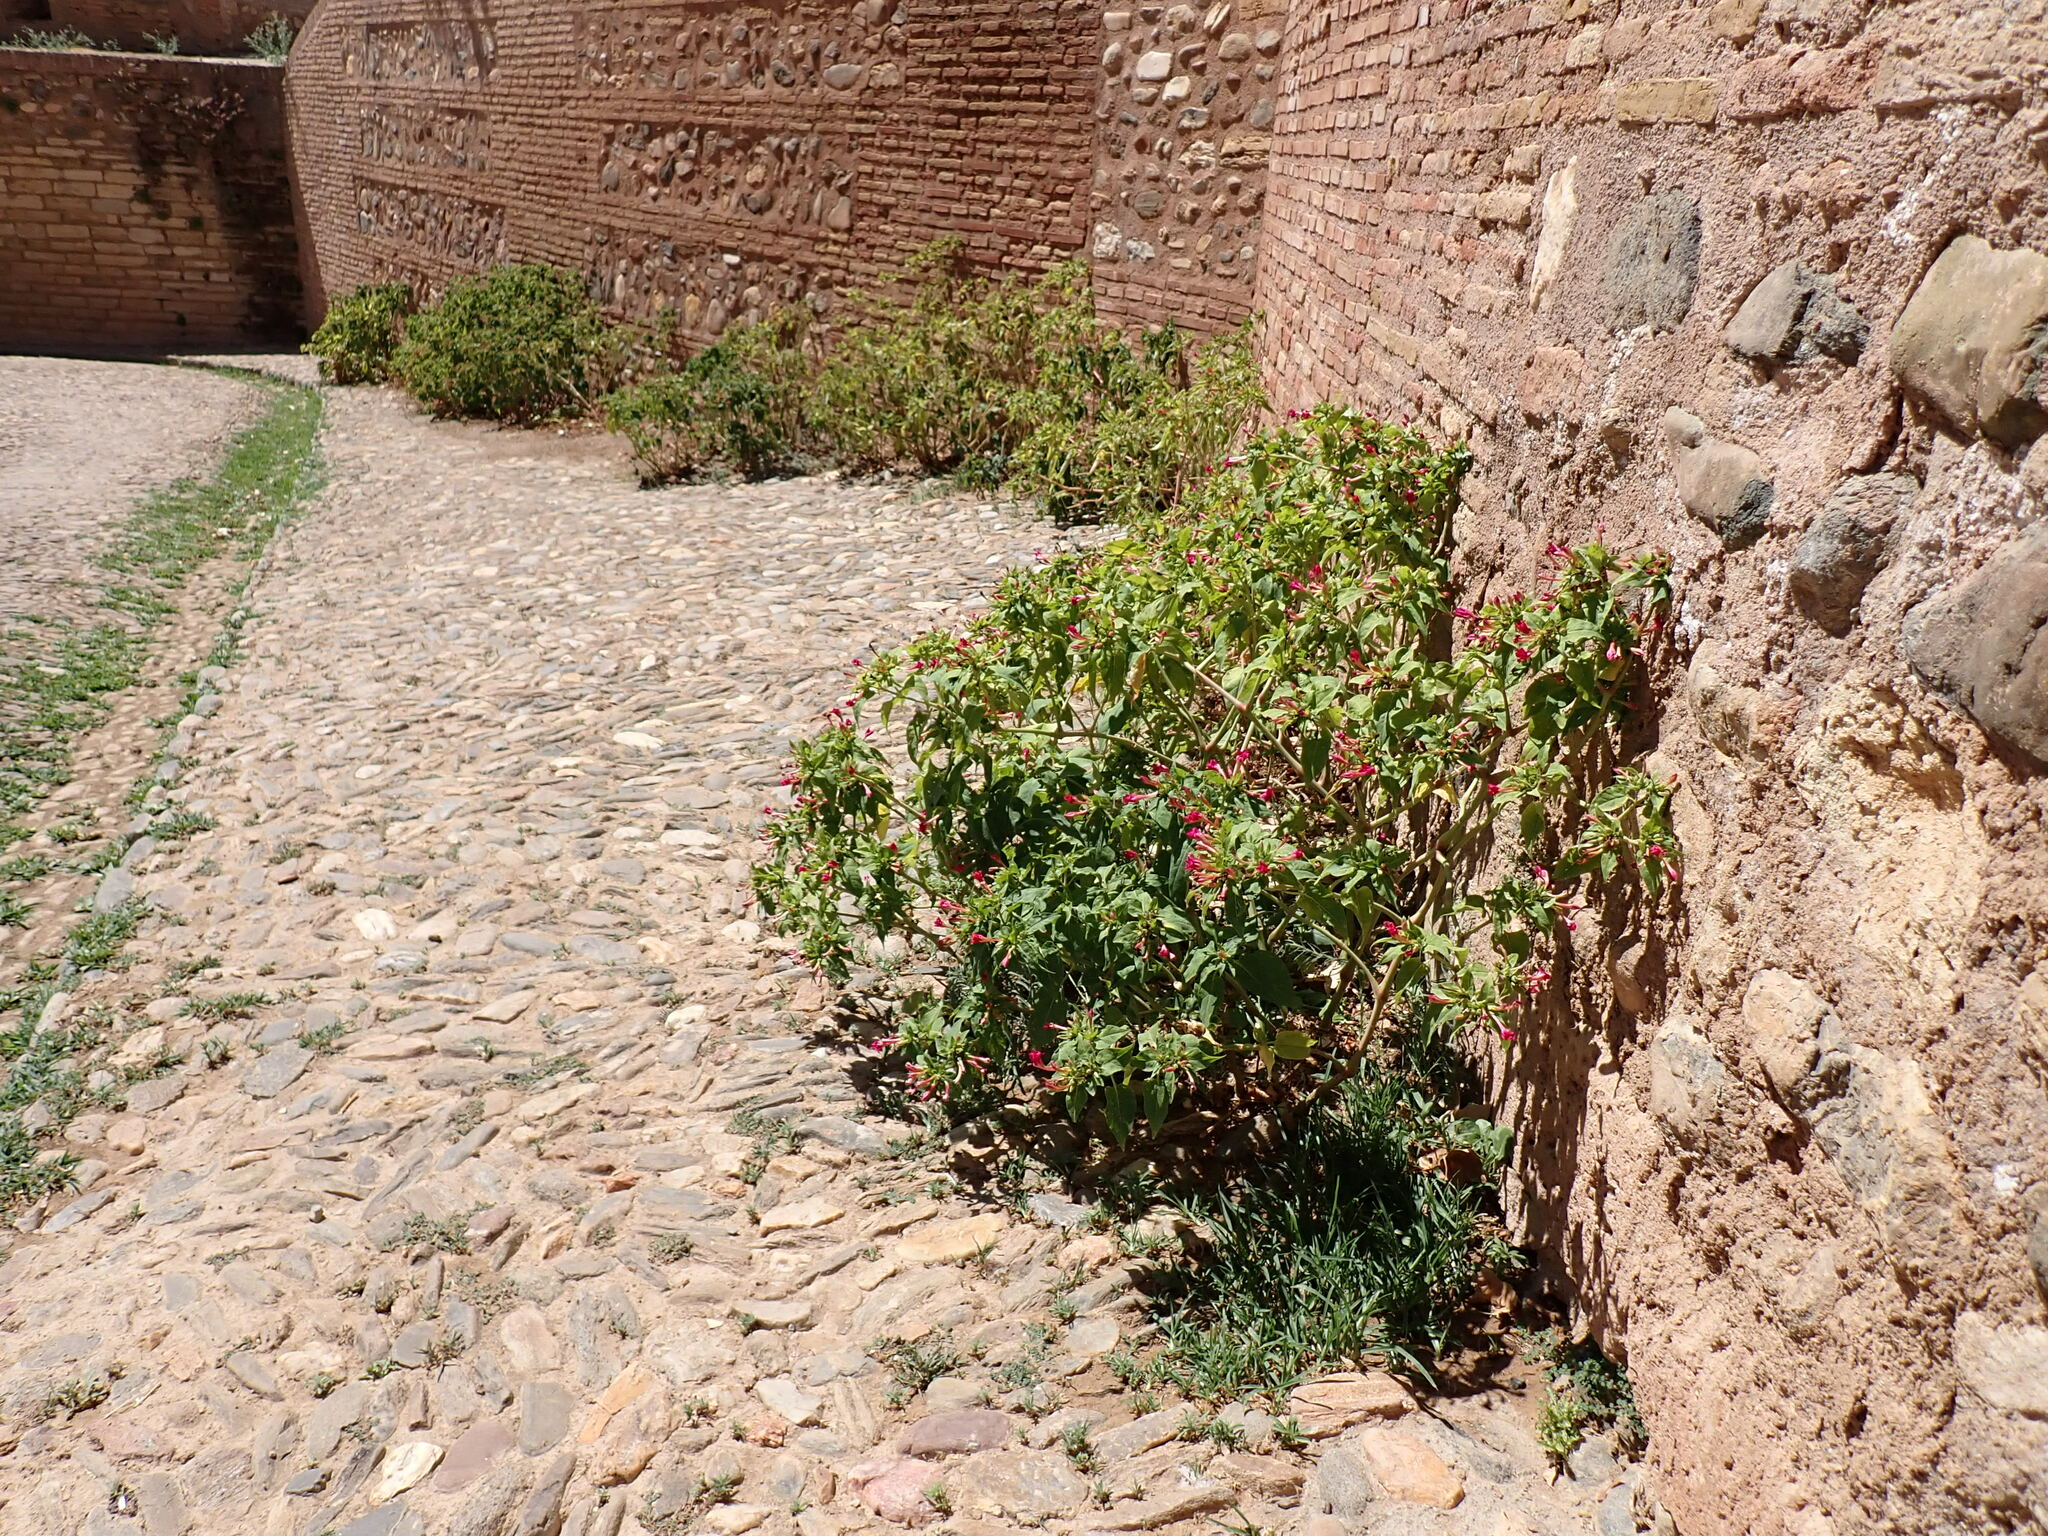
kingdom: Plantae
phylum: Tracheophyta
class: Magnoliopsida
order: Caryophyllales
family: Nyctaginaceae
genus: Mirabilis
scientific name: Mirabilis jalapa
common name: Marvel-of-peru
